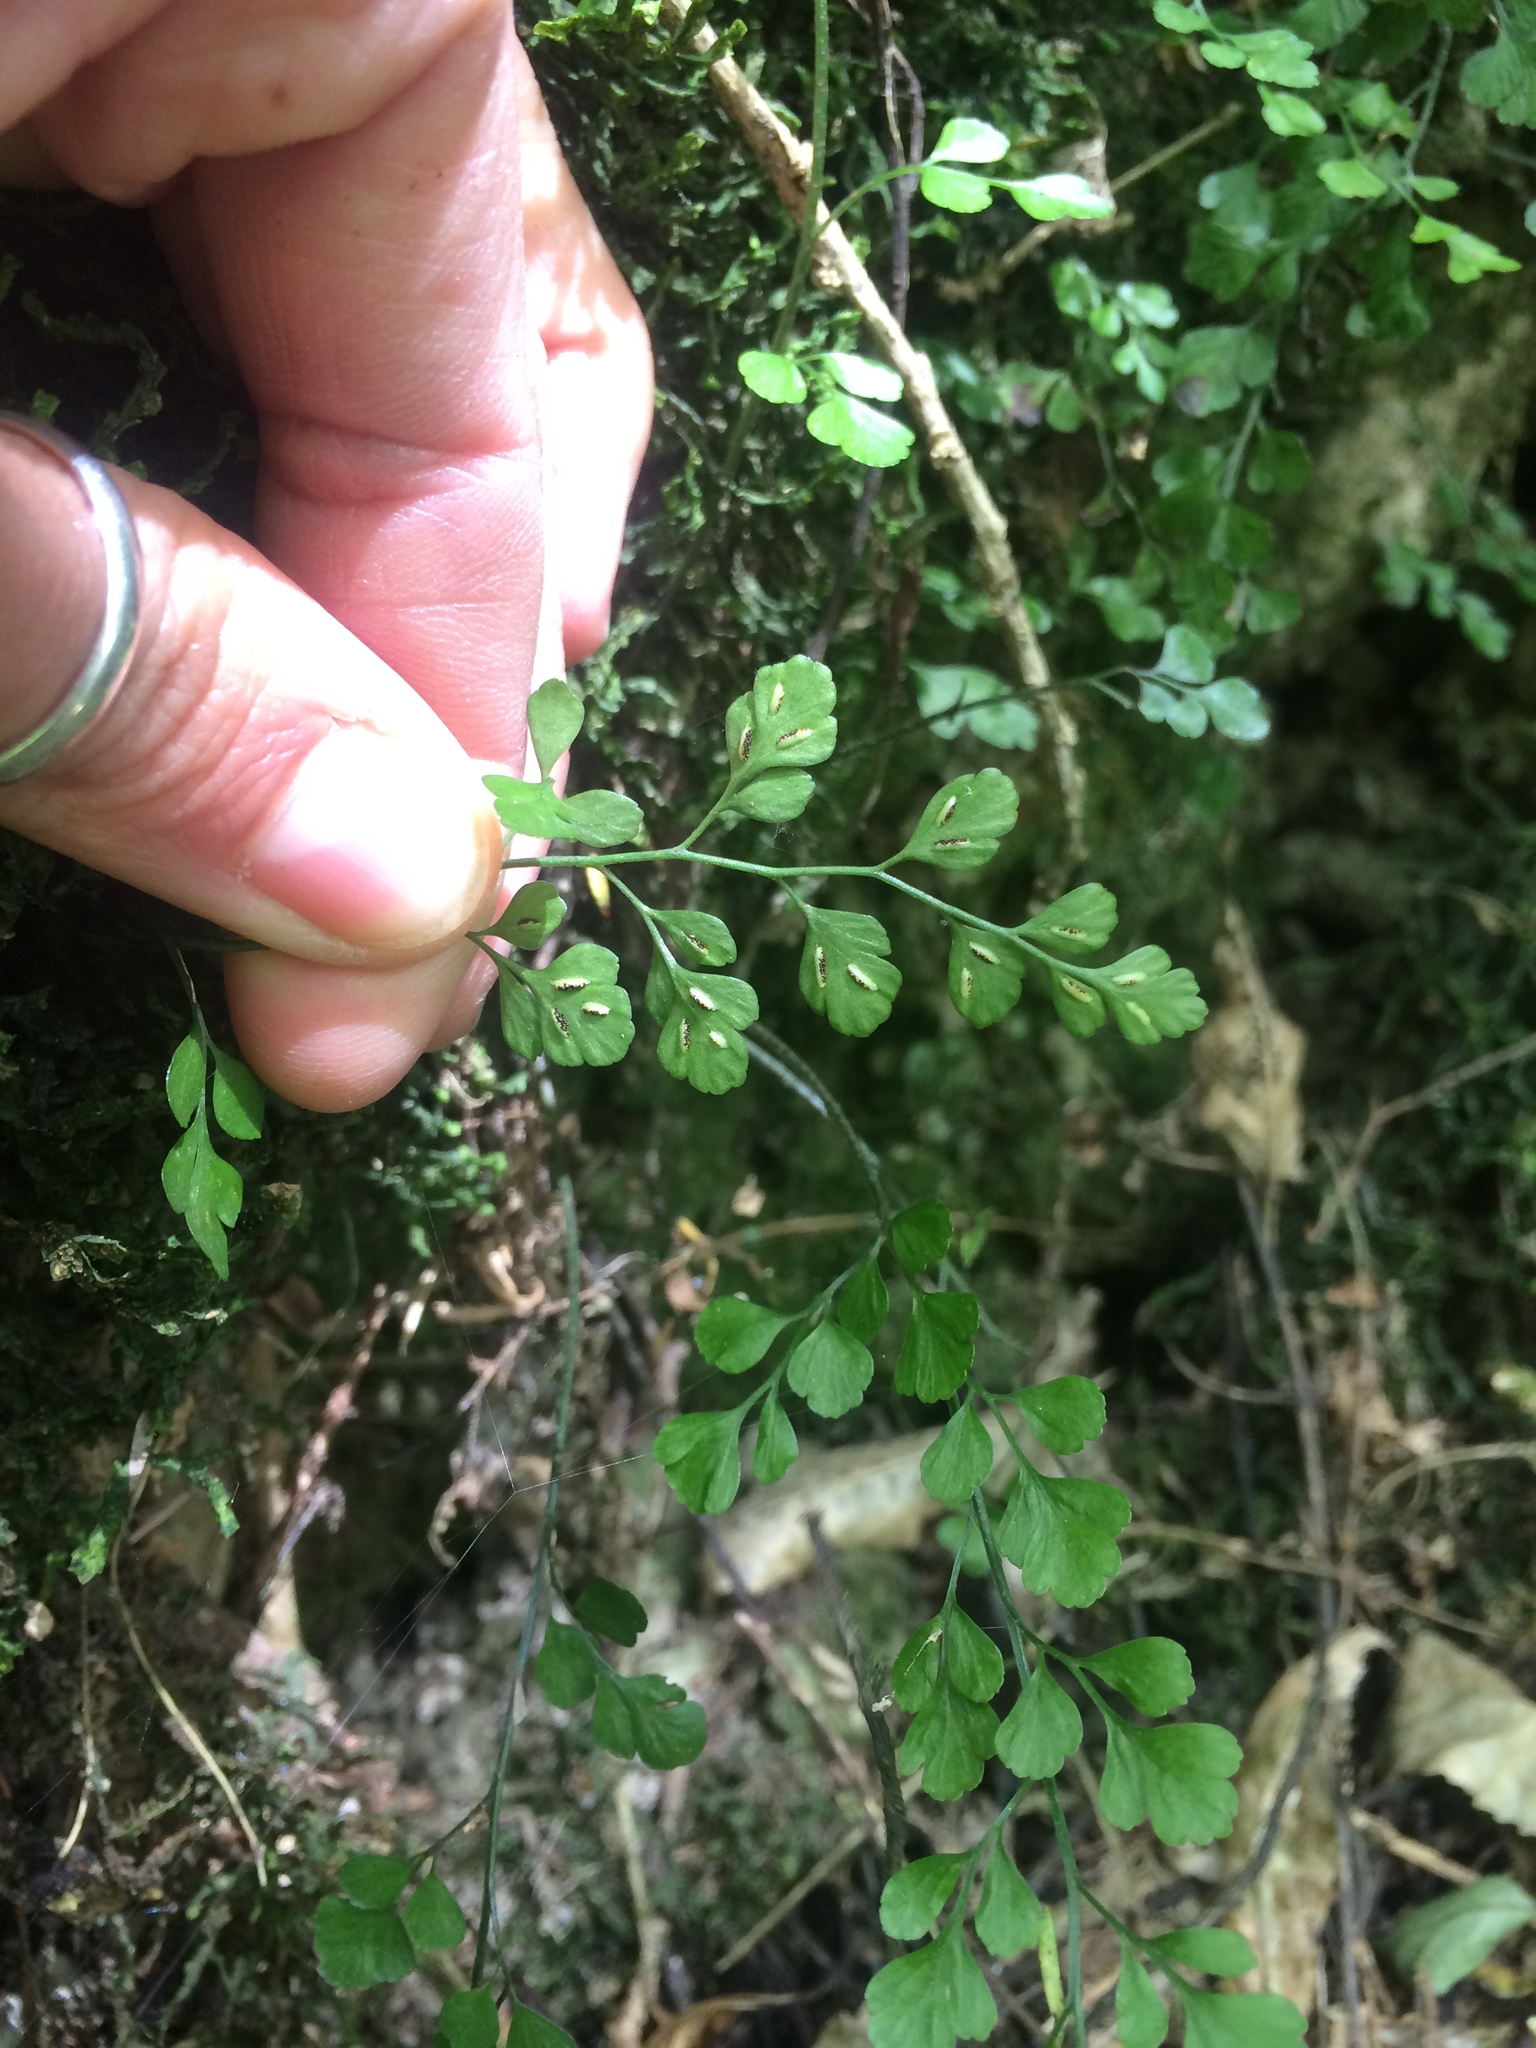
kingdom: Plantae
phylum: Tracheophyta
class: Polypodiopsida
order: Polypodiales
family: Aspleniaceae
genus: Asplenium
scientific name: Asplenium hookerianum
